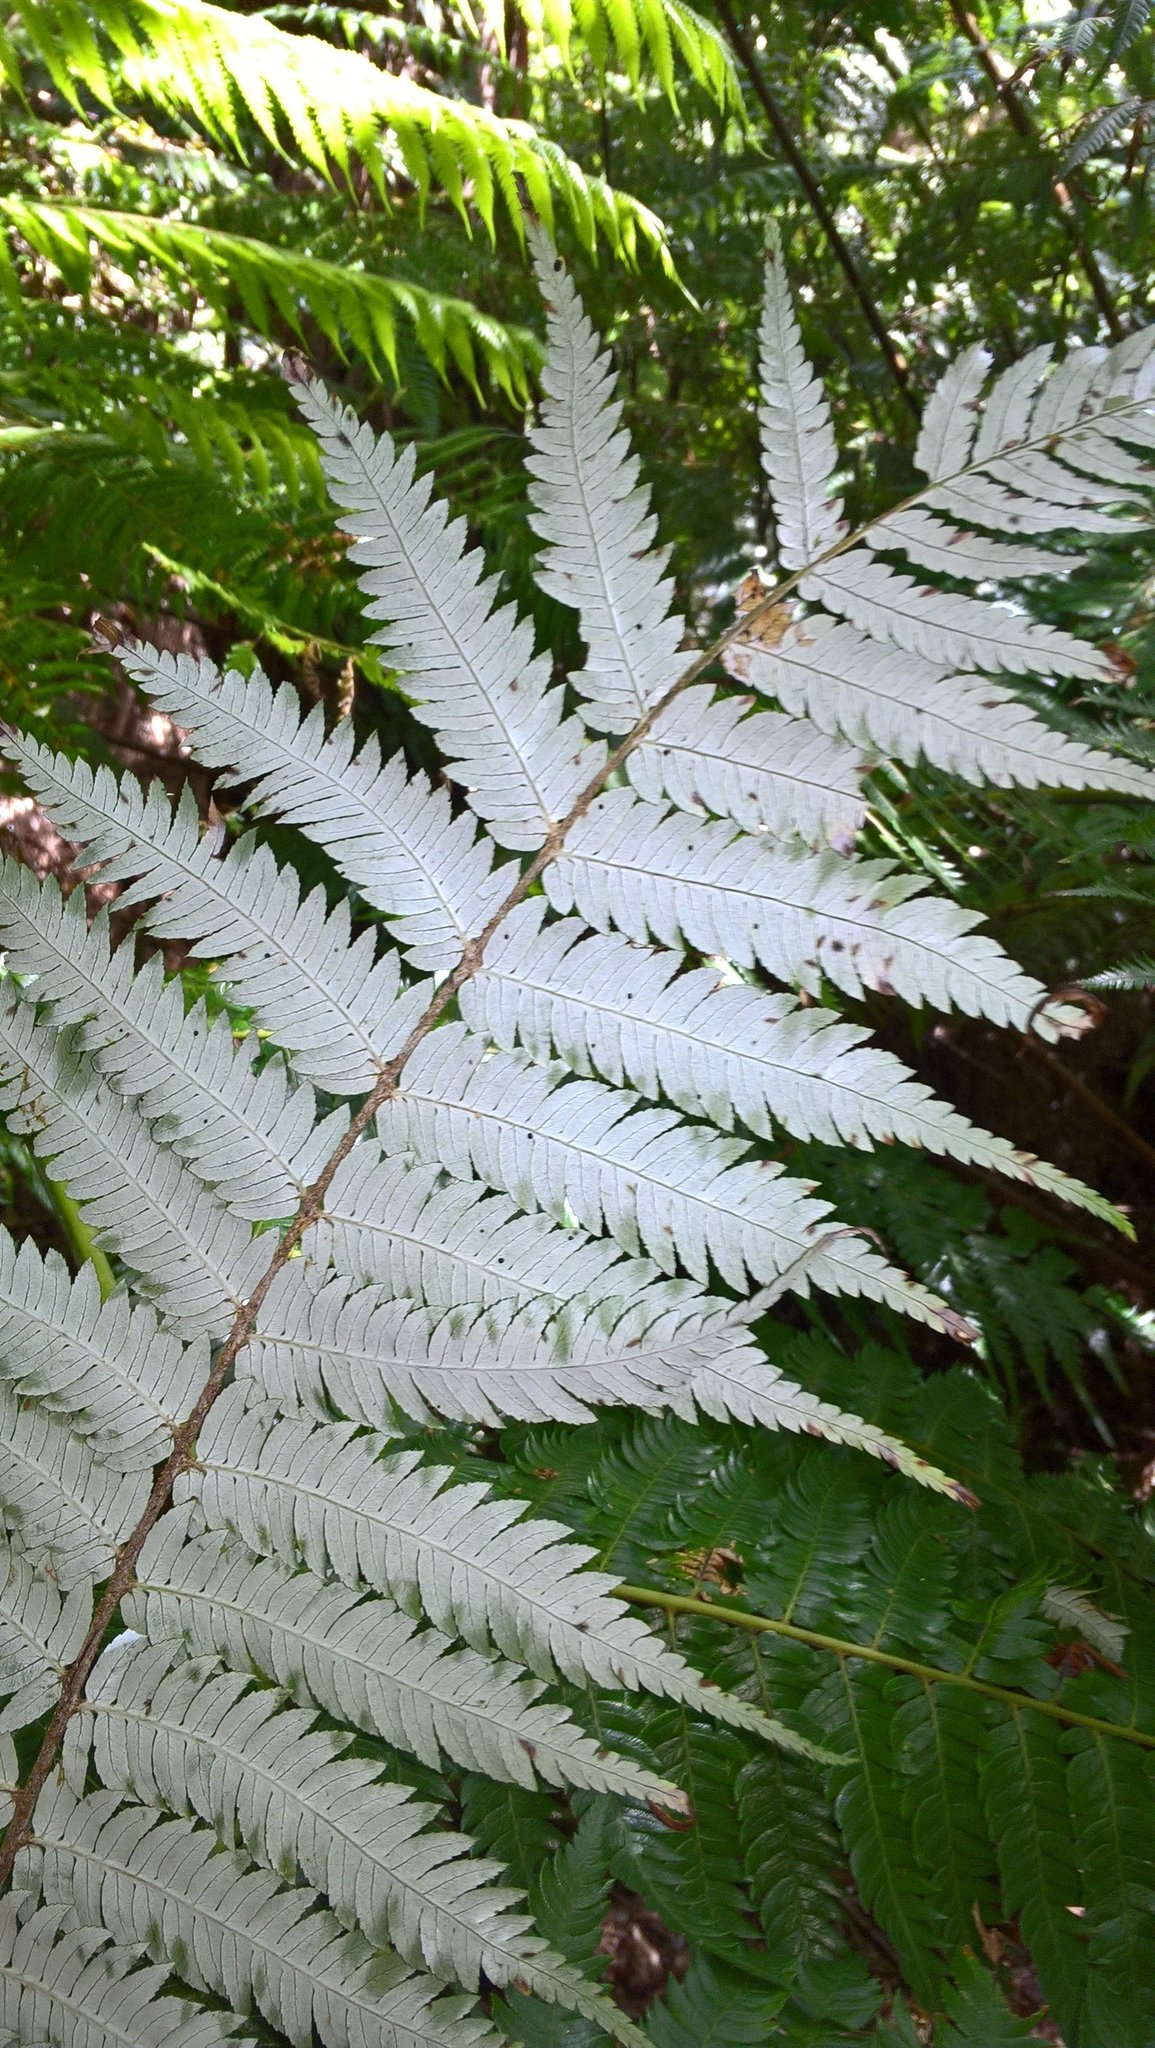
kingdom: Plantae
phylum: Tracheophyta
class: Polypodiopsida
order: Cyatheales
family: Cyatheaceae
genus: Alsophila
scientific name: Alsophila dealbata
